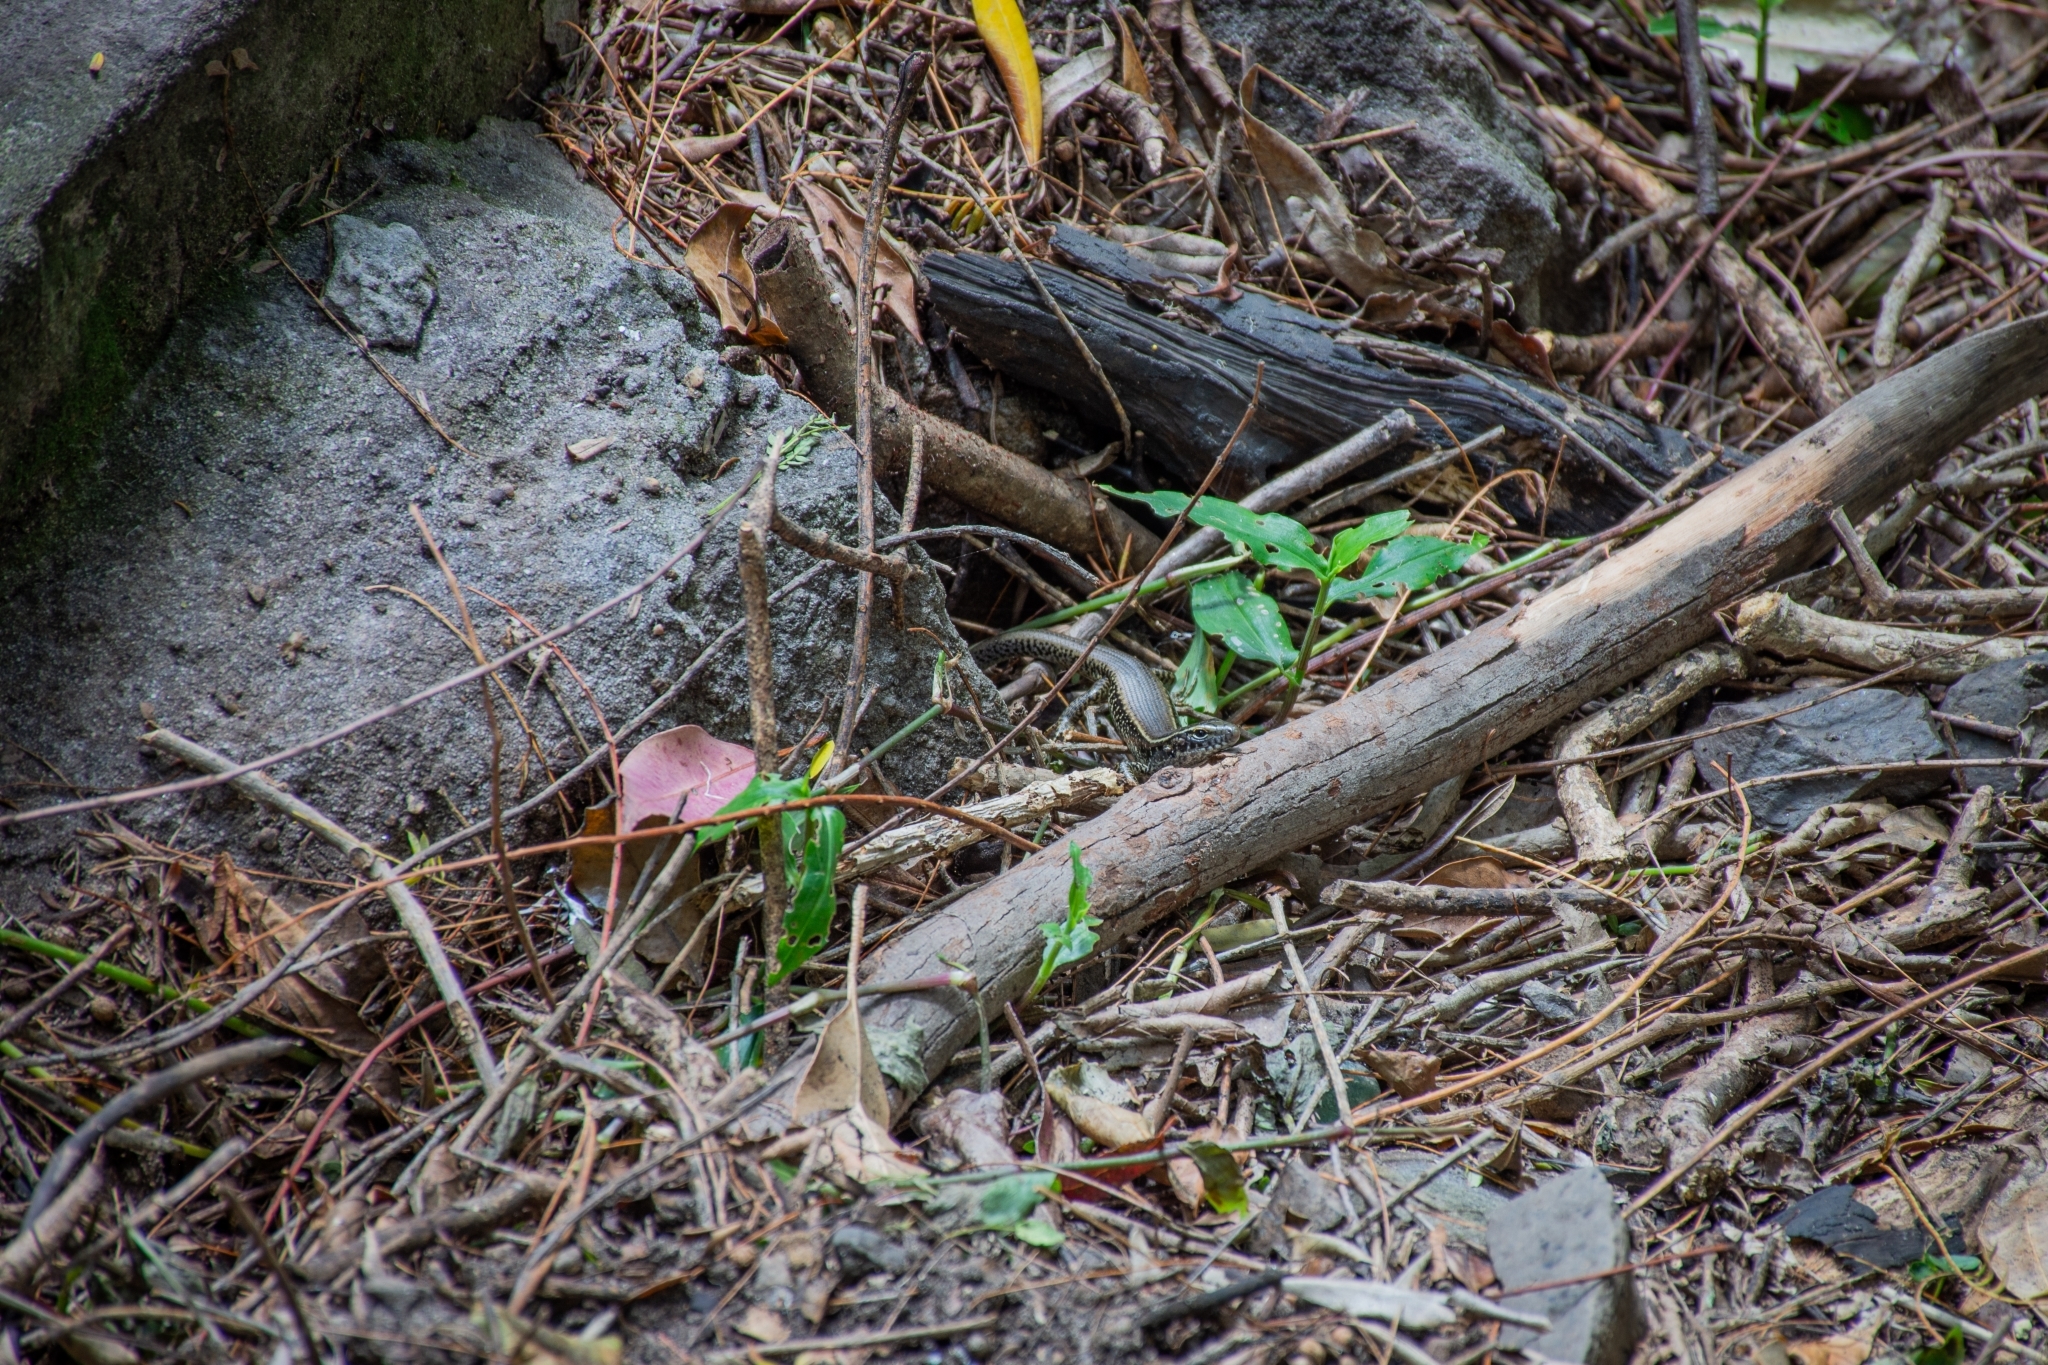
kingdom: Animalia
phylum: Chordata
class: Squamata
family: Scincidae
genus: Eulamprus
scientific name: Eulamprus quoyii
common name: Eastern water skink
